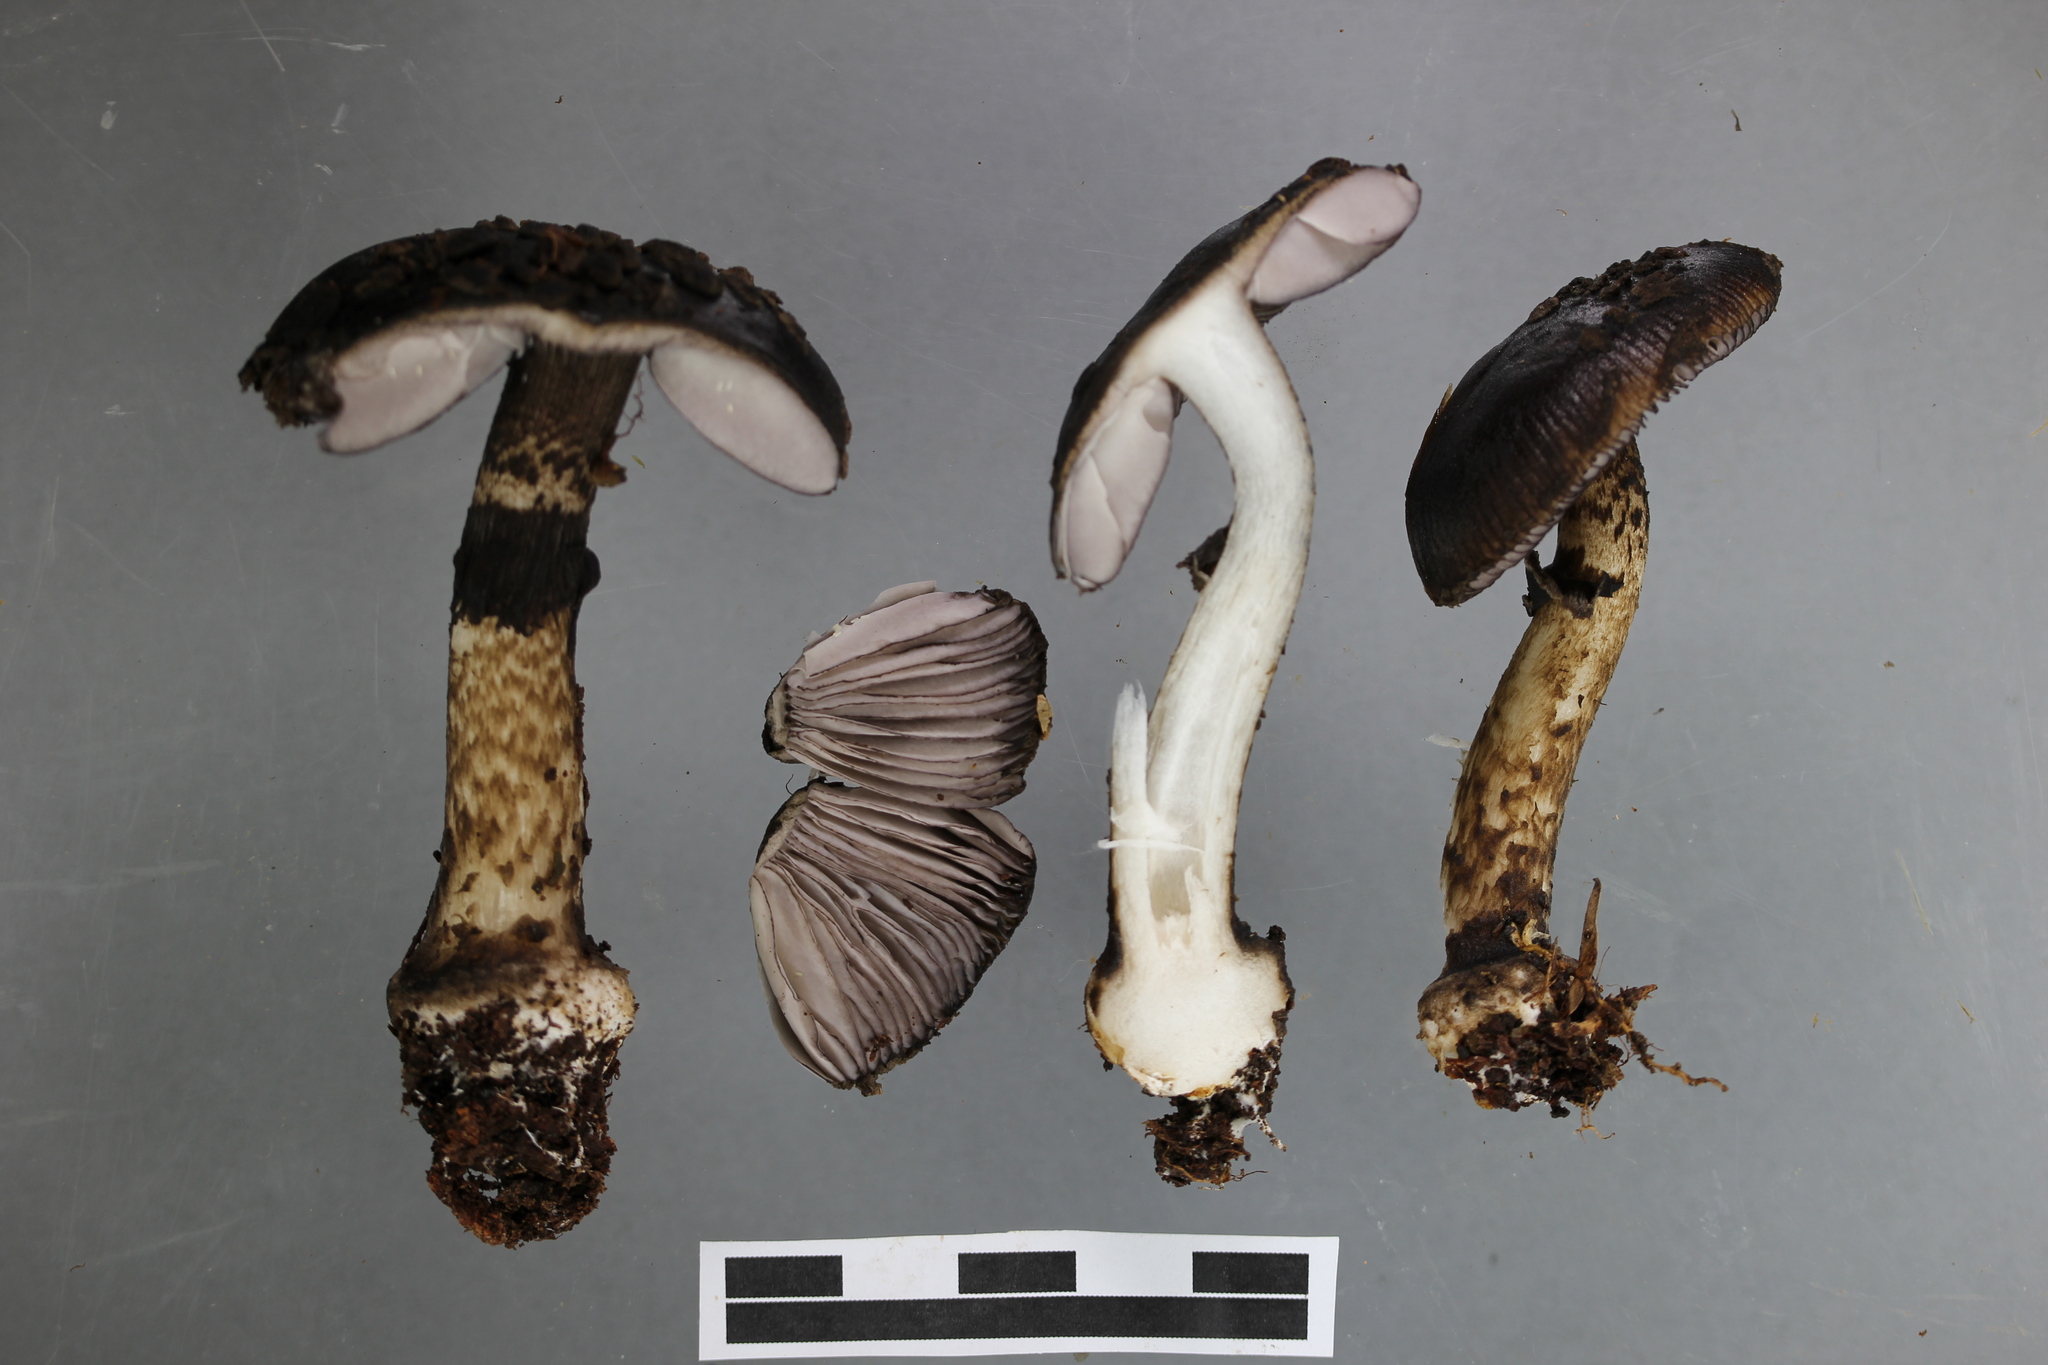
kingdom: Fungi
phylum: Basidiomycota
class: Agaricomycetes
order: Agaricales
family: Amanitaceae
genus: Amanita
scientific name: Amanita nigrescens
